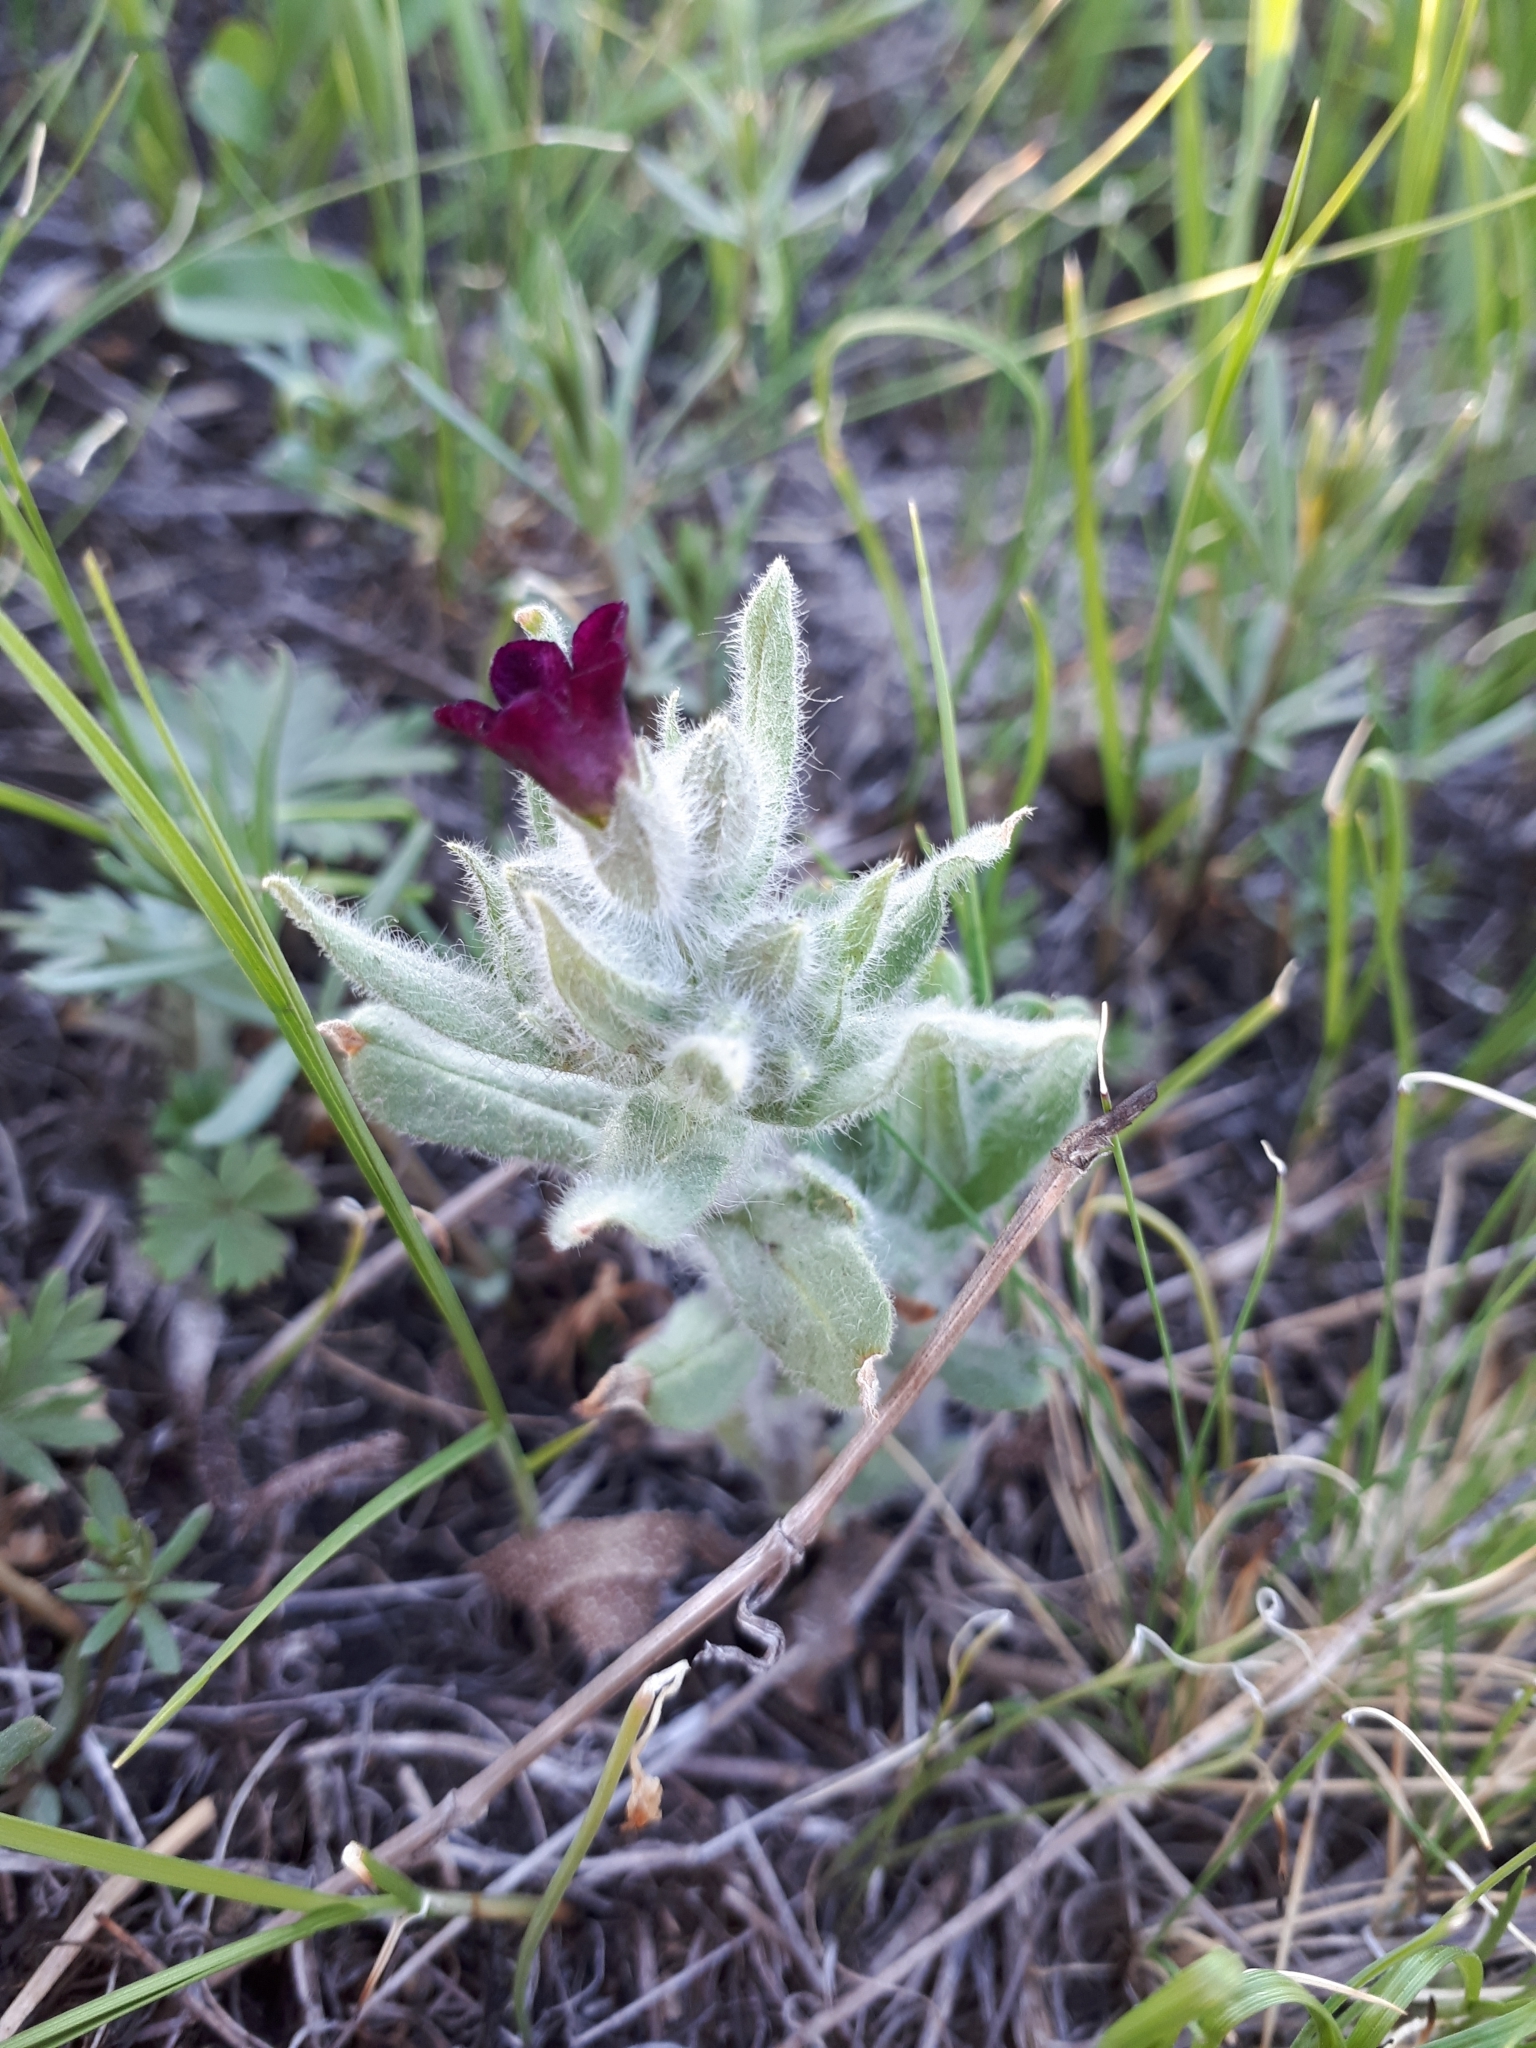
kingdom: Plantae
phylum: Tracheophyta
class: Magnoliopsida
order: Boraginales
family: Boraginaceae
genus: Nonea
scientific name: Nonea pulla
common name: Brown nonea
